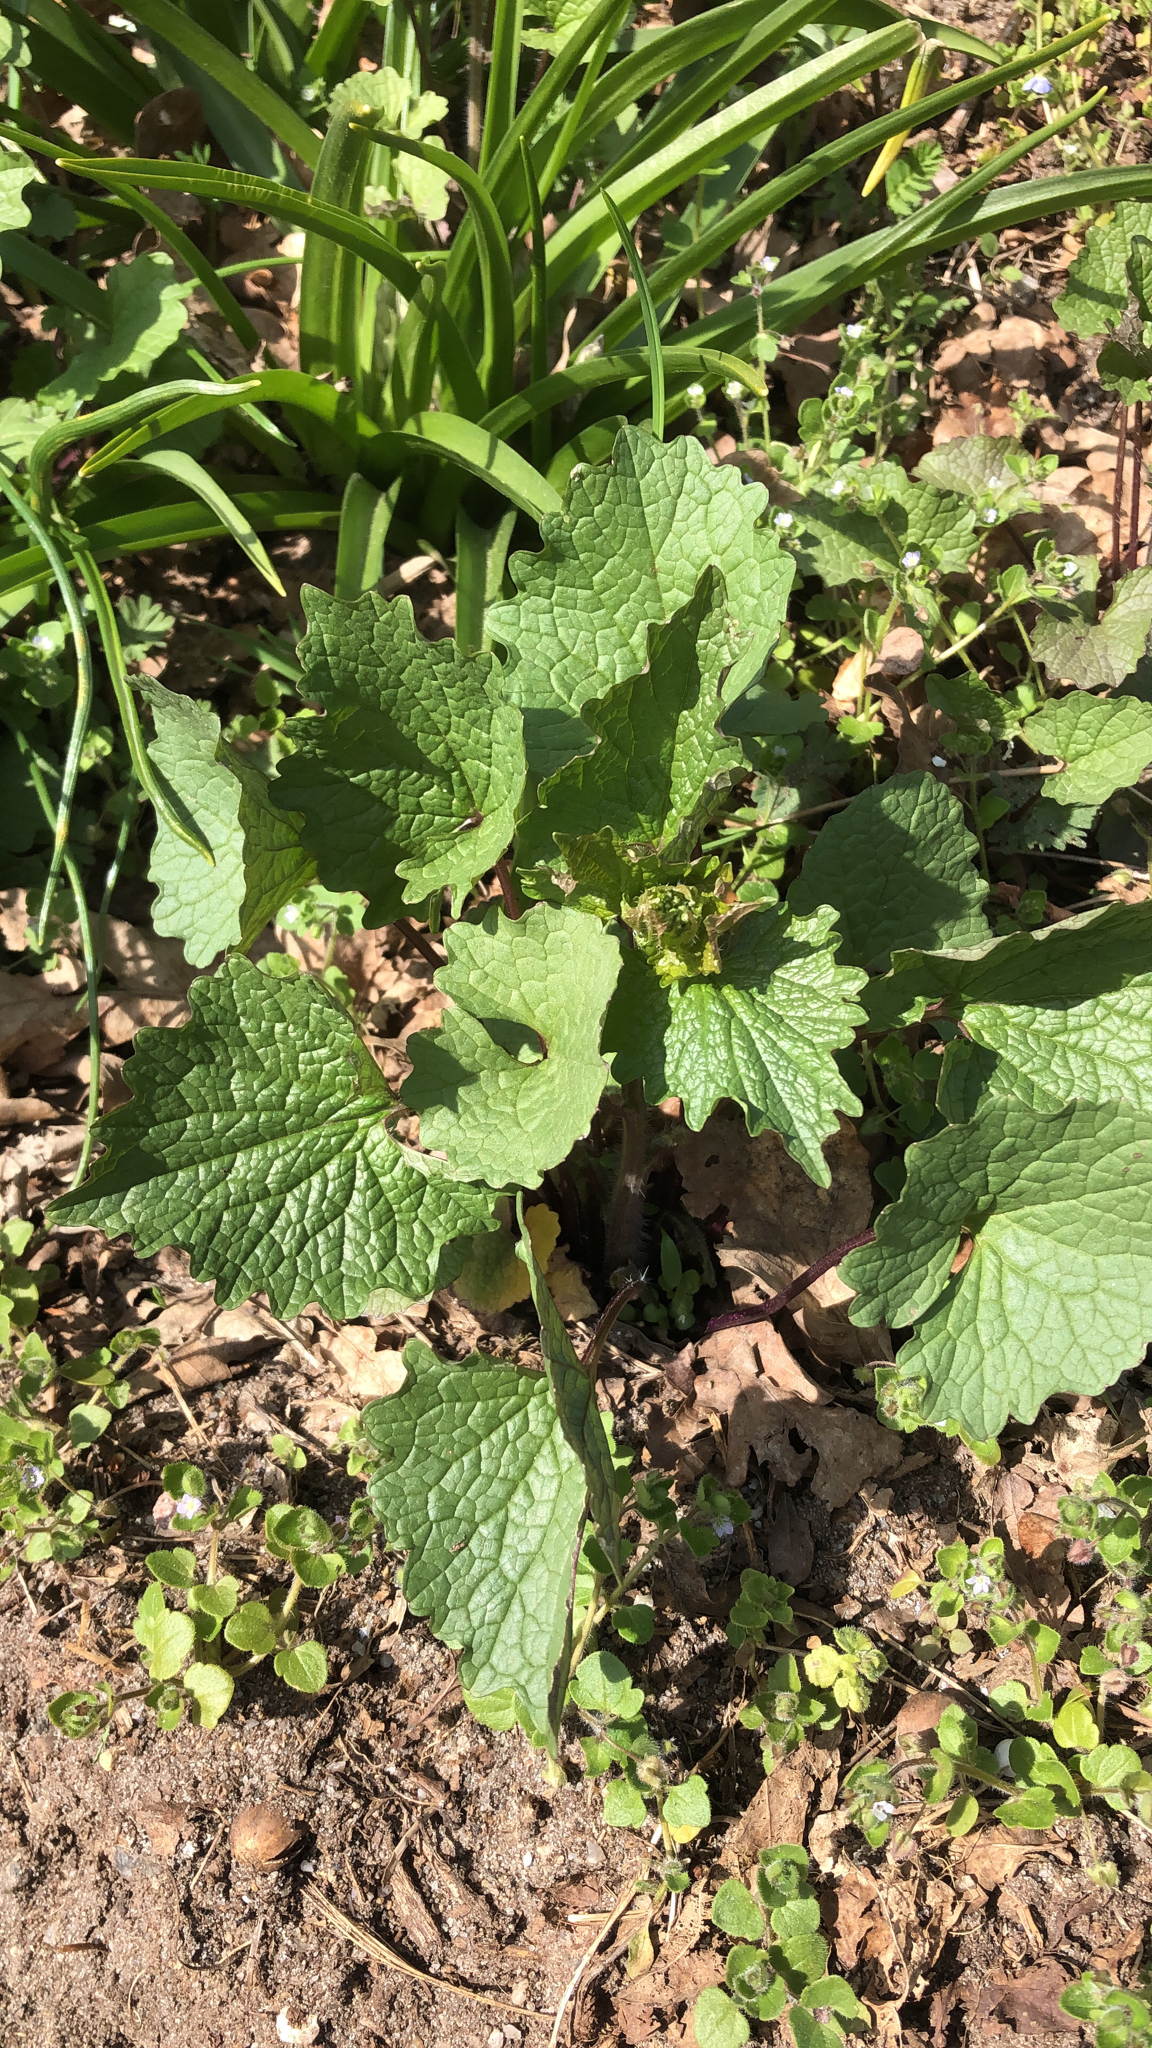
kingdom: Plantae
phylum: Tracheophyta
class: Magnoliopsida
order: Brassicales
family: Brassicaceae
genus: Alliaria
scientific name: Alliaria petiolata
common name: Garlic mustard
